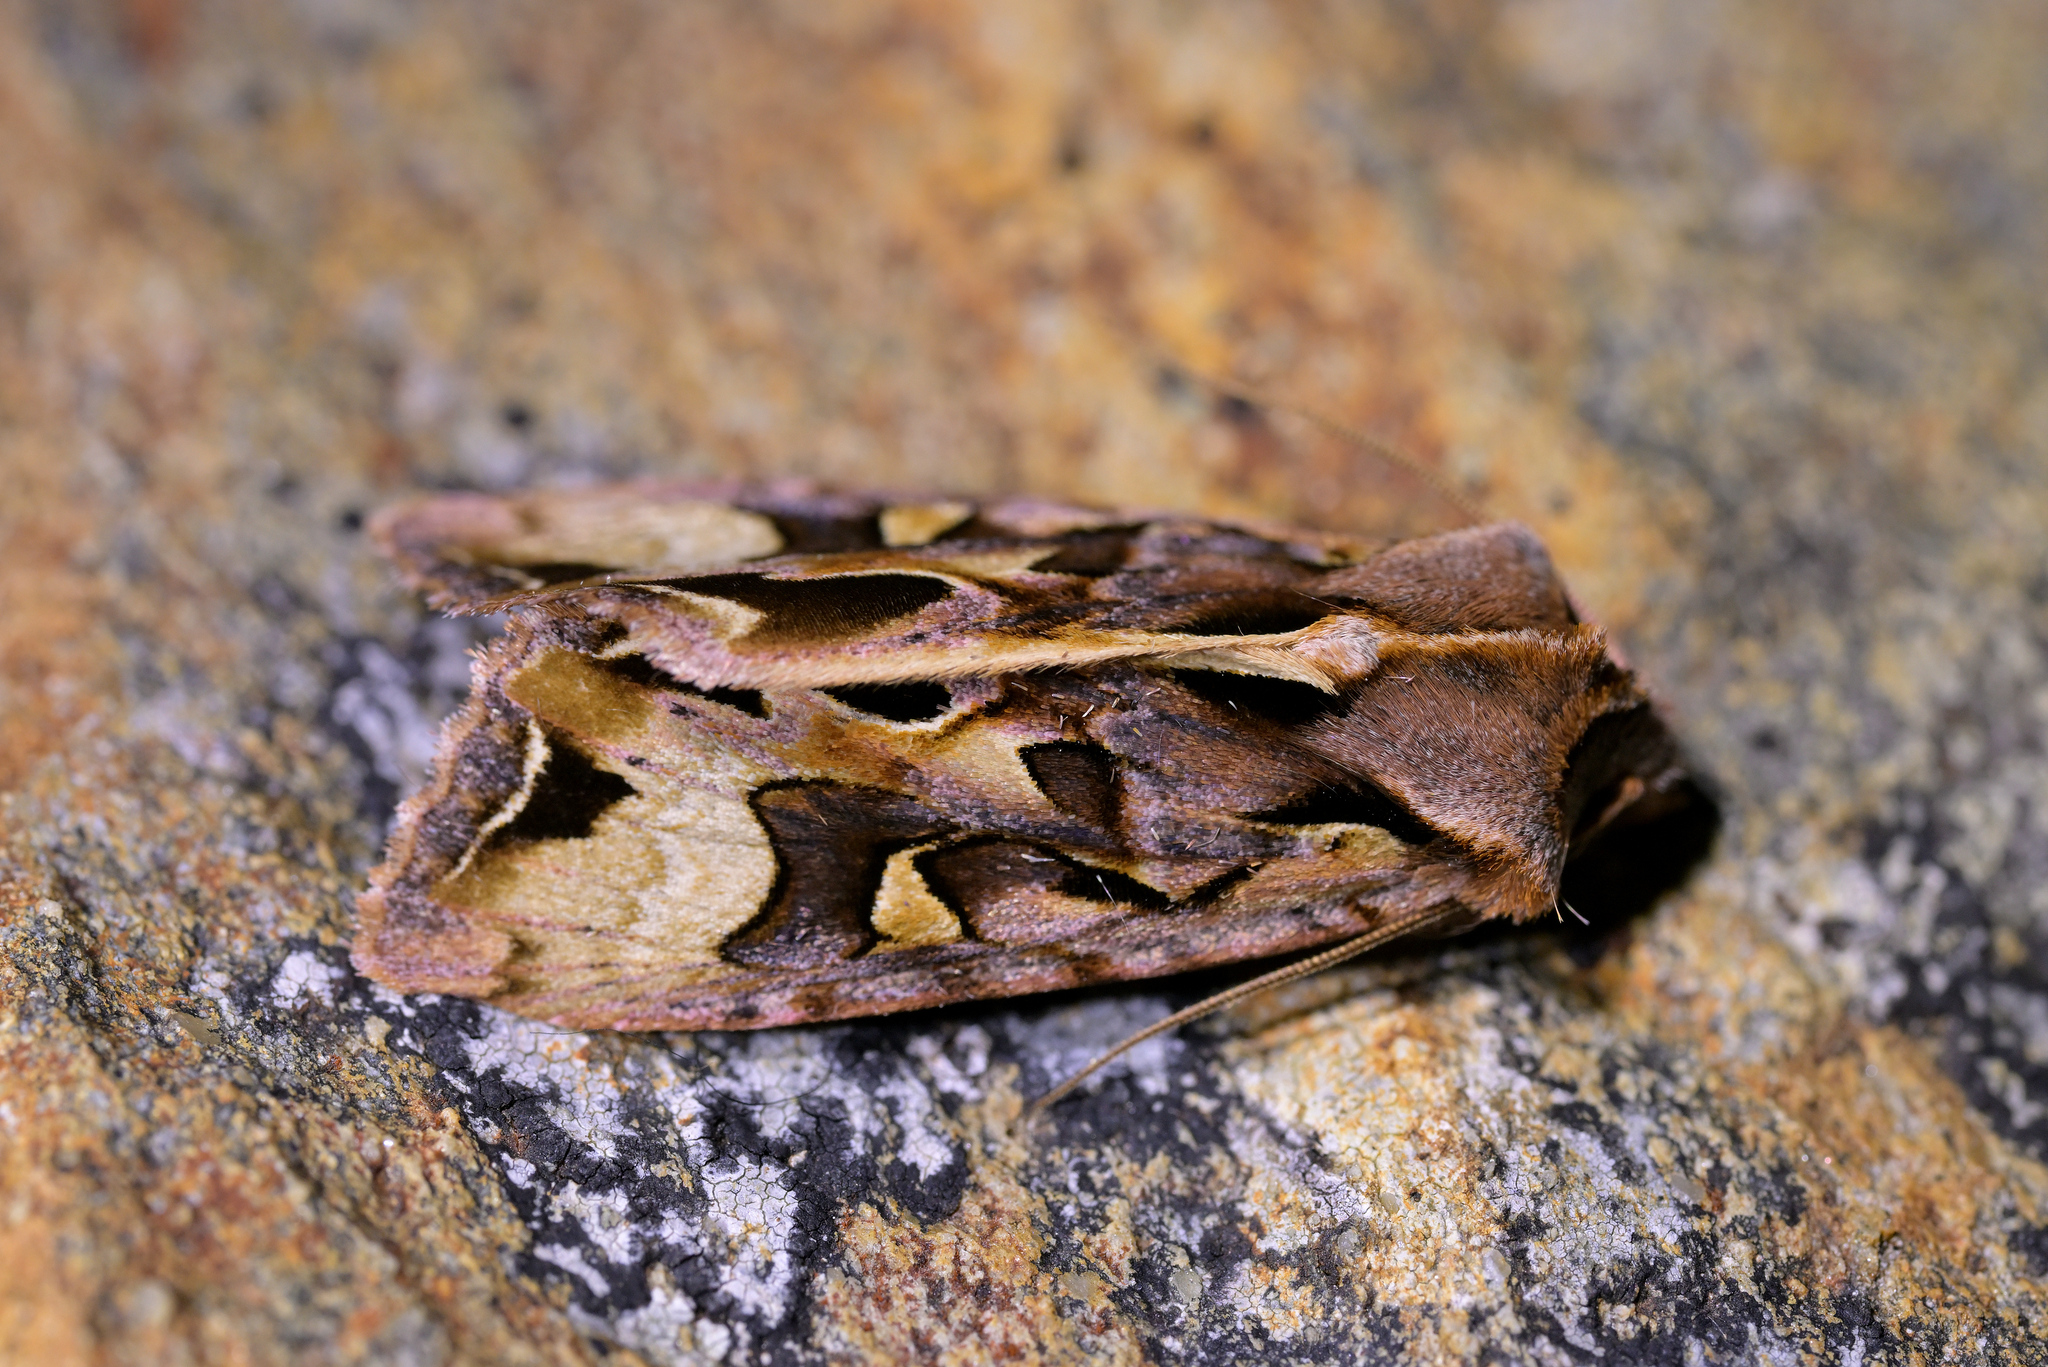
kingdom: Animalia
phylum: Arthropoda
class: Insecta
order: Lepidoptera
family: Noctuidae
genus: Ichneutica
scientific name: Ichneutica
